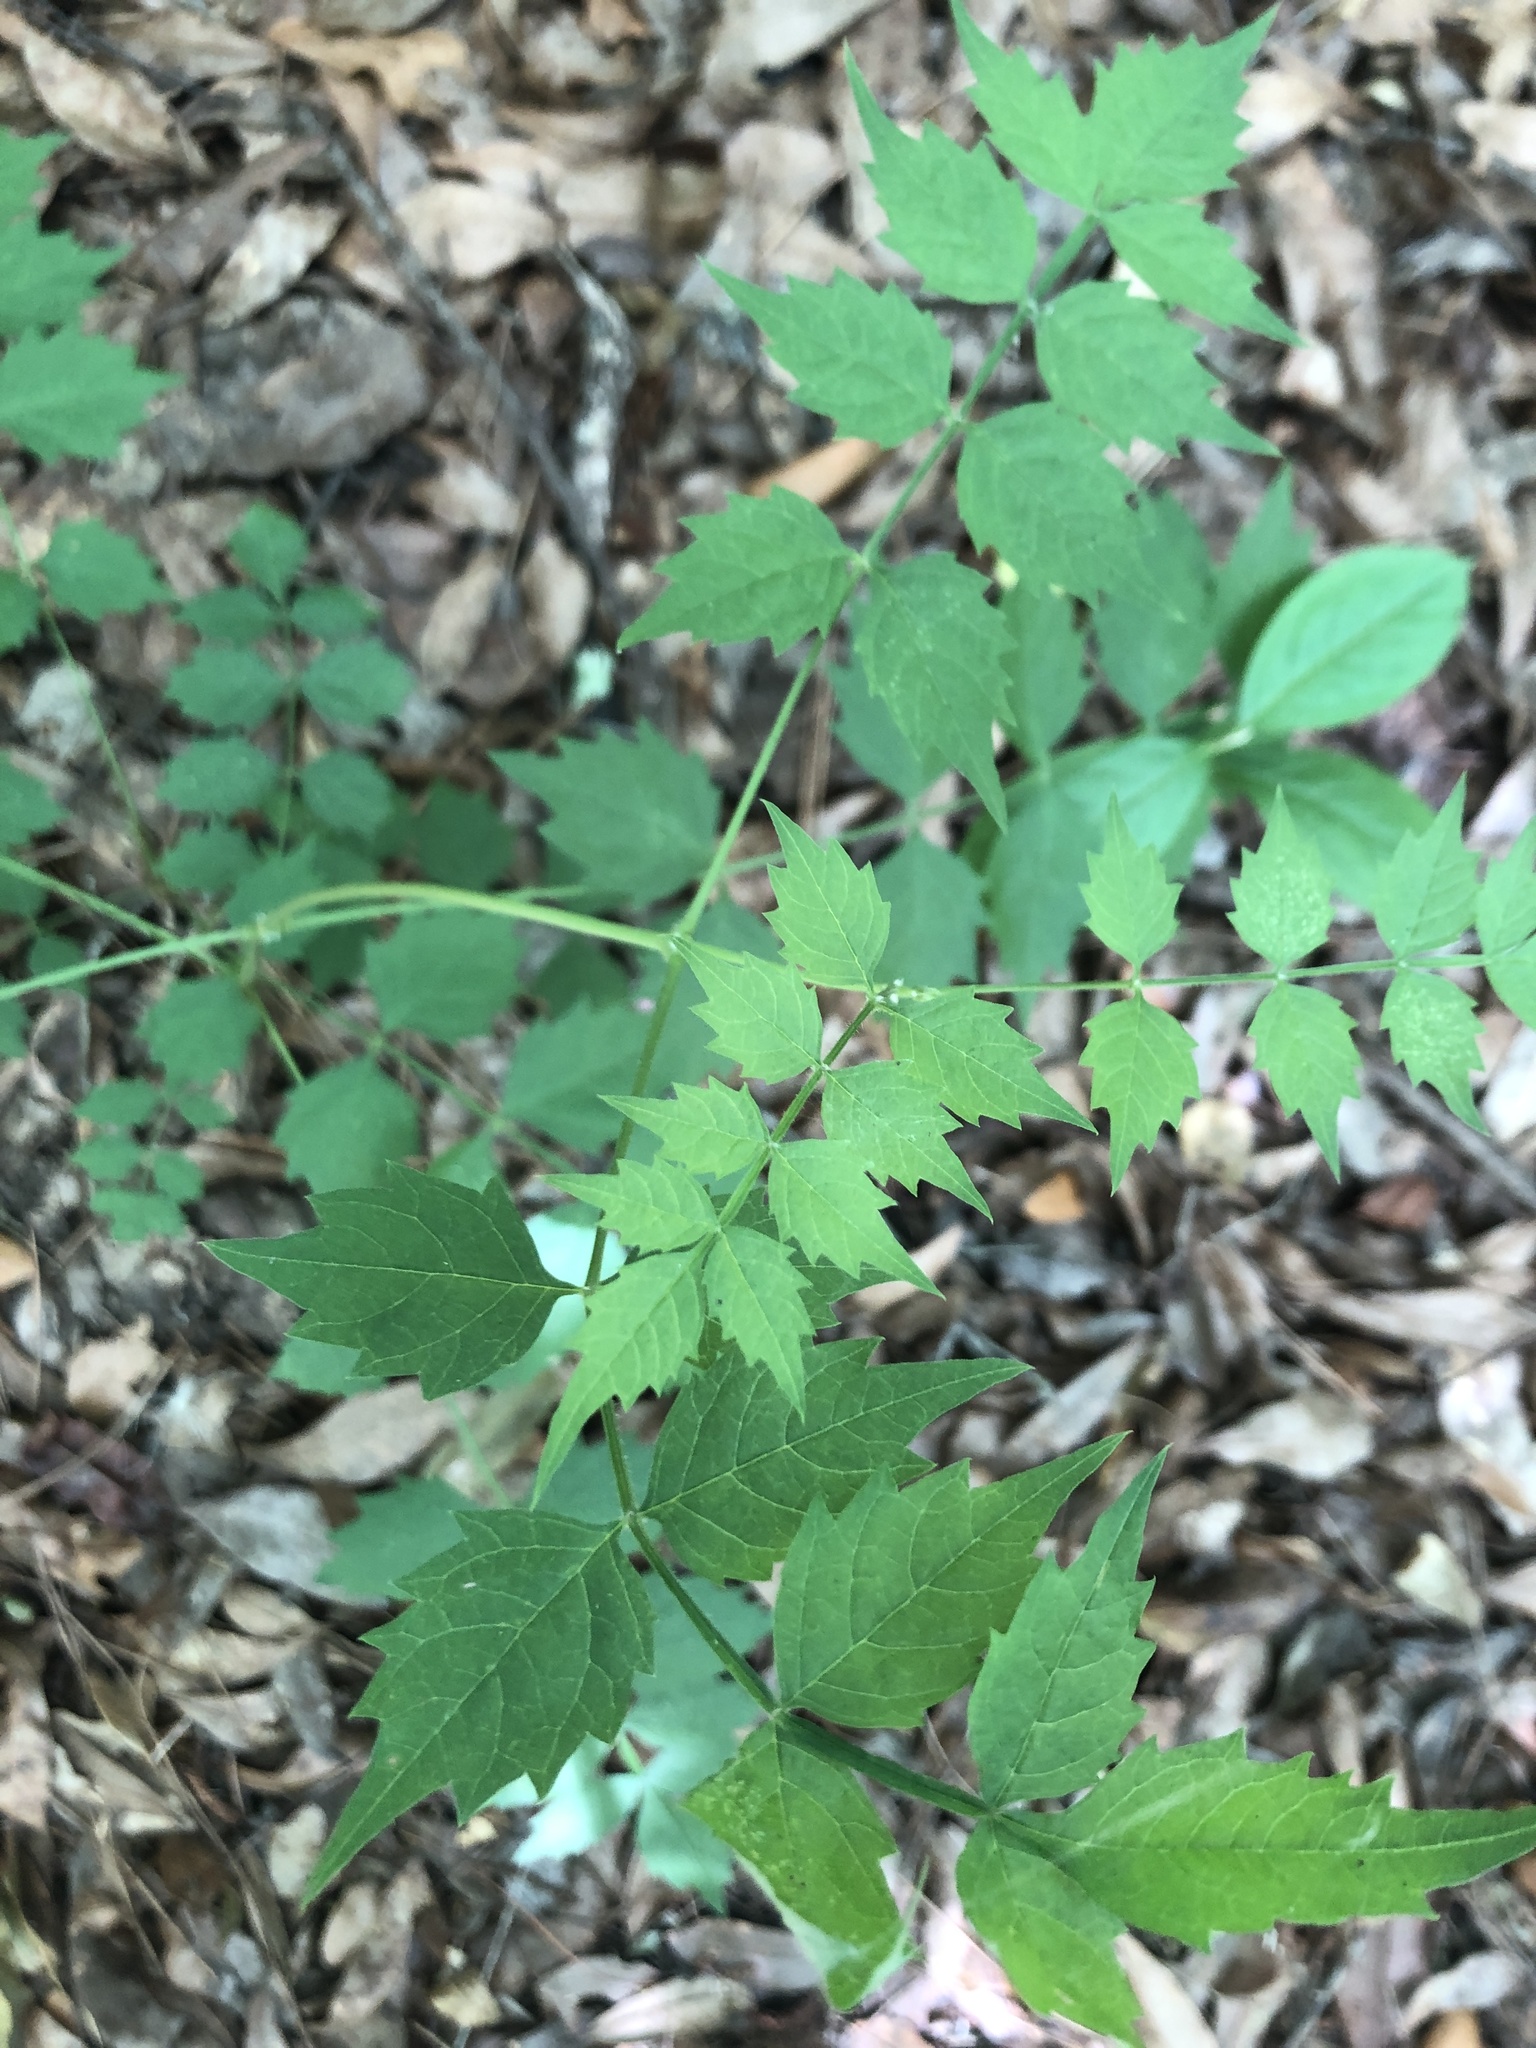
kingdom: Plantae
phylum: Tracheophyta
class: Magnoliopsida
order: Lamiales
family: Bignoniaceae
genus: Campsis
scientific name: Campsis radicans
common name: Trumpet-creeper
